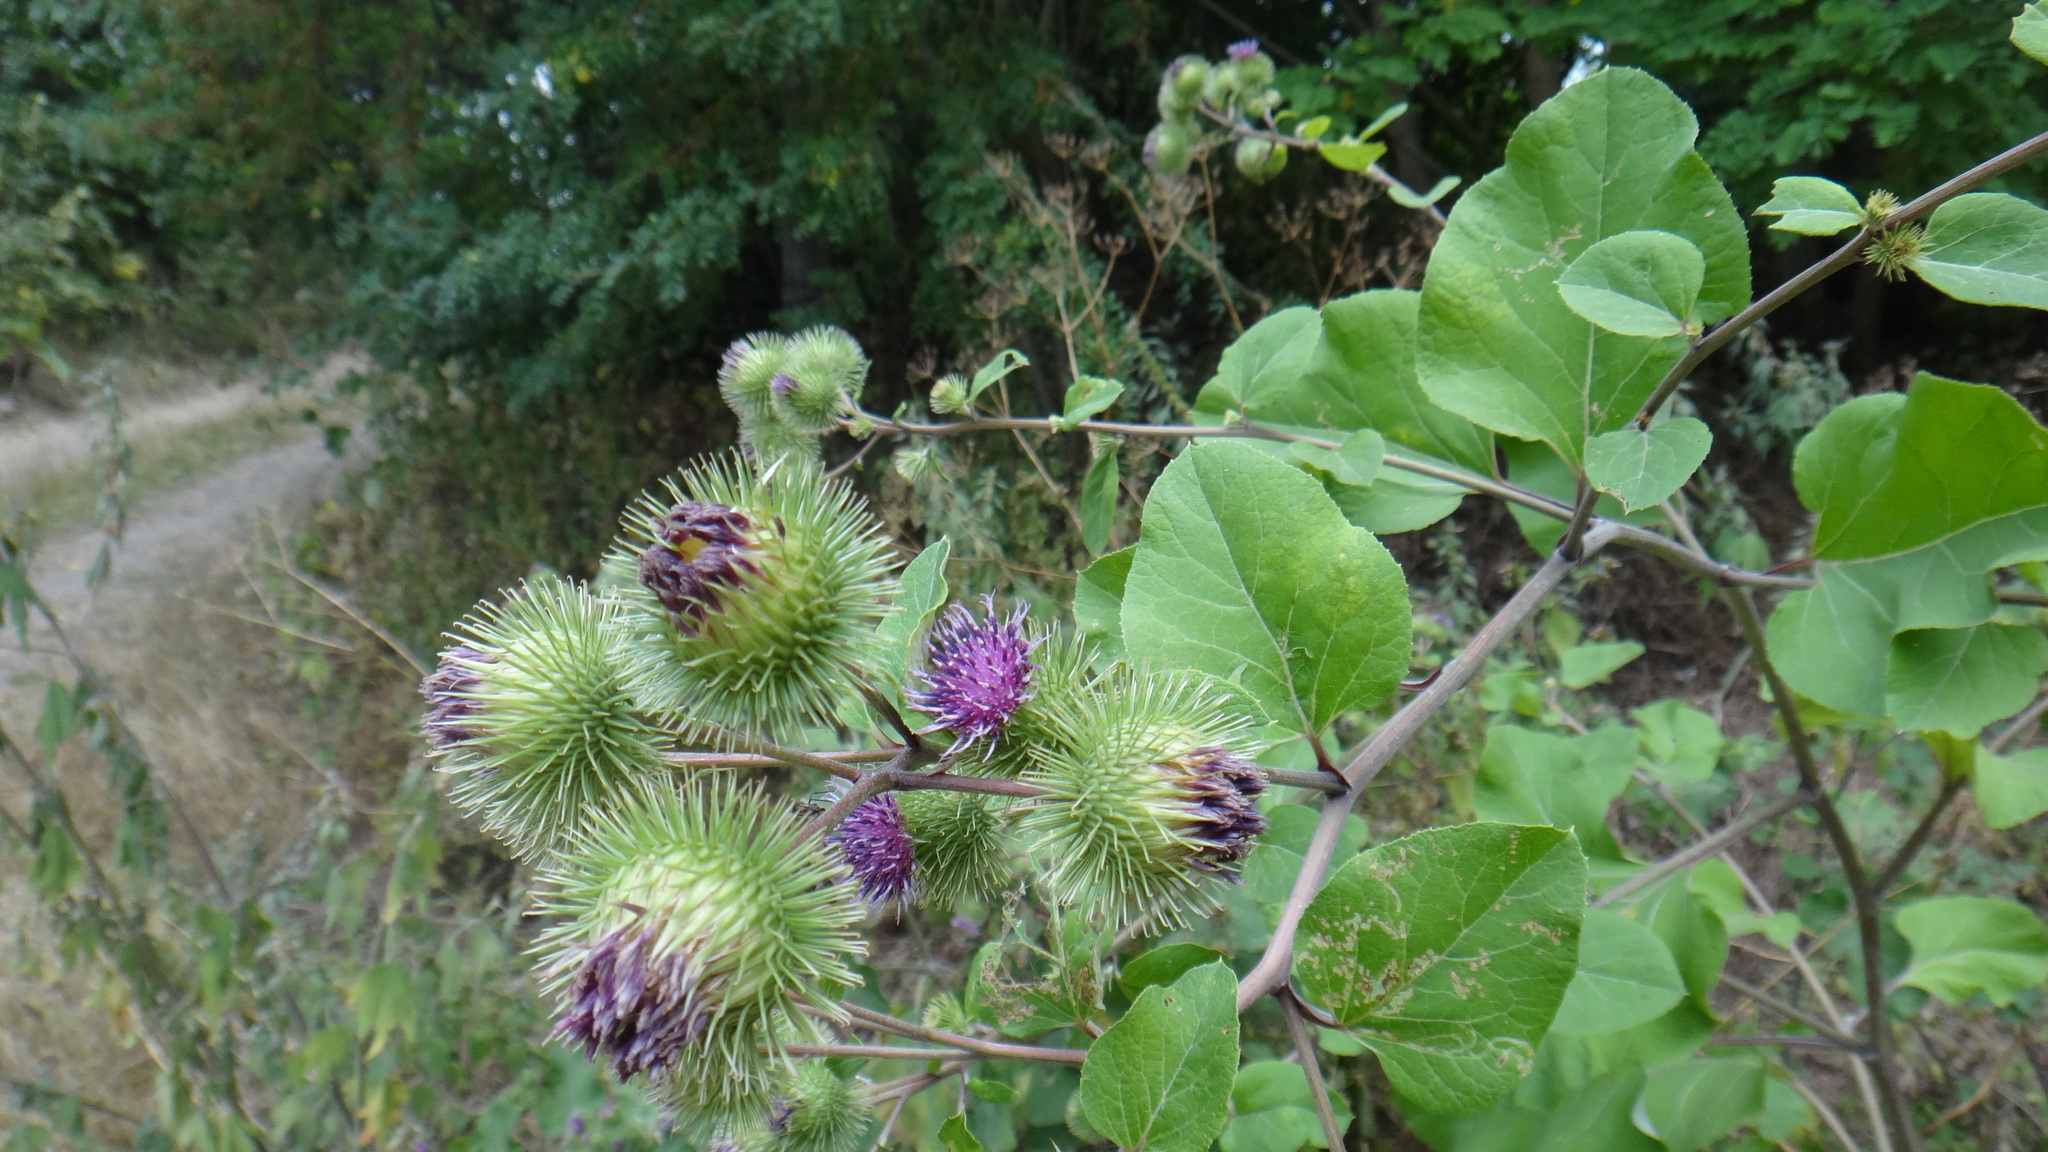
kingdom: Plantae
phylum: Tracheophyta
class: Magnoliopsida
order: Asterales
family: Asteraceae
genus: Arctium
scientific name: Arctium lappa
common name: Greater burdock
